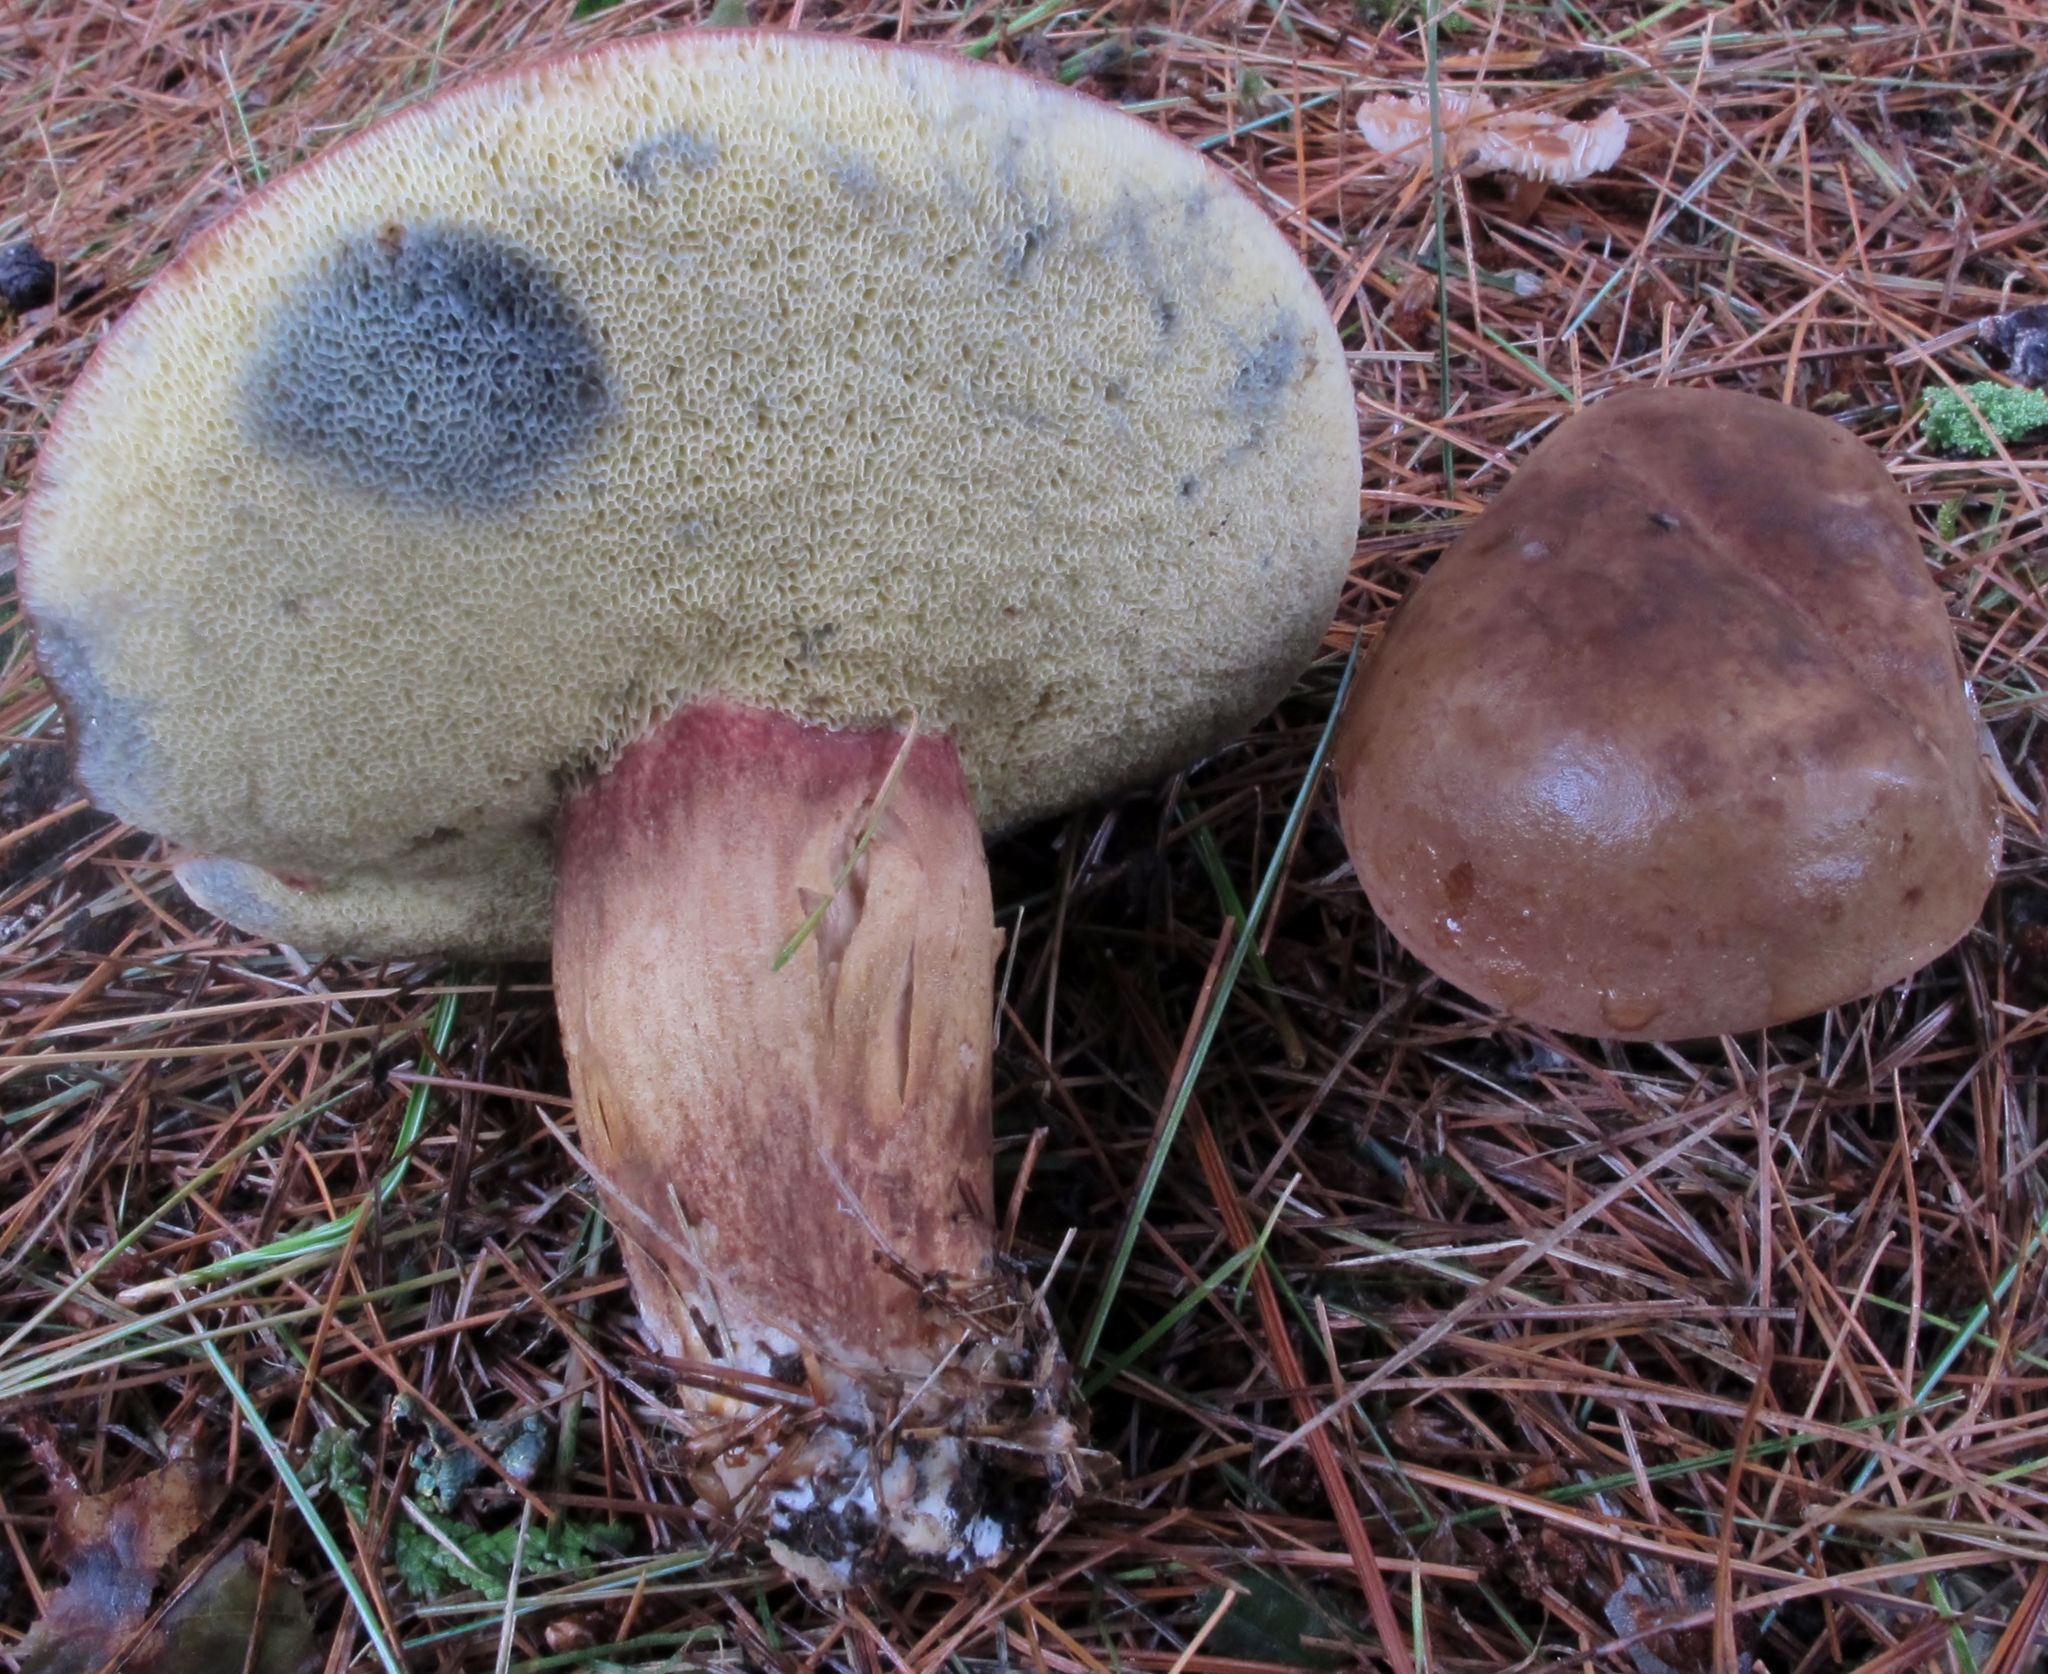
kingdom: Fungi
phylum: Basidiomycota
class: Agaricomycetes
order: Boletales
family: Boletaceae
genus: Imleria
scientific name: Imleria badia
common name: Bay bolete
